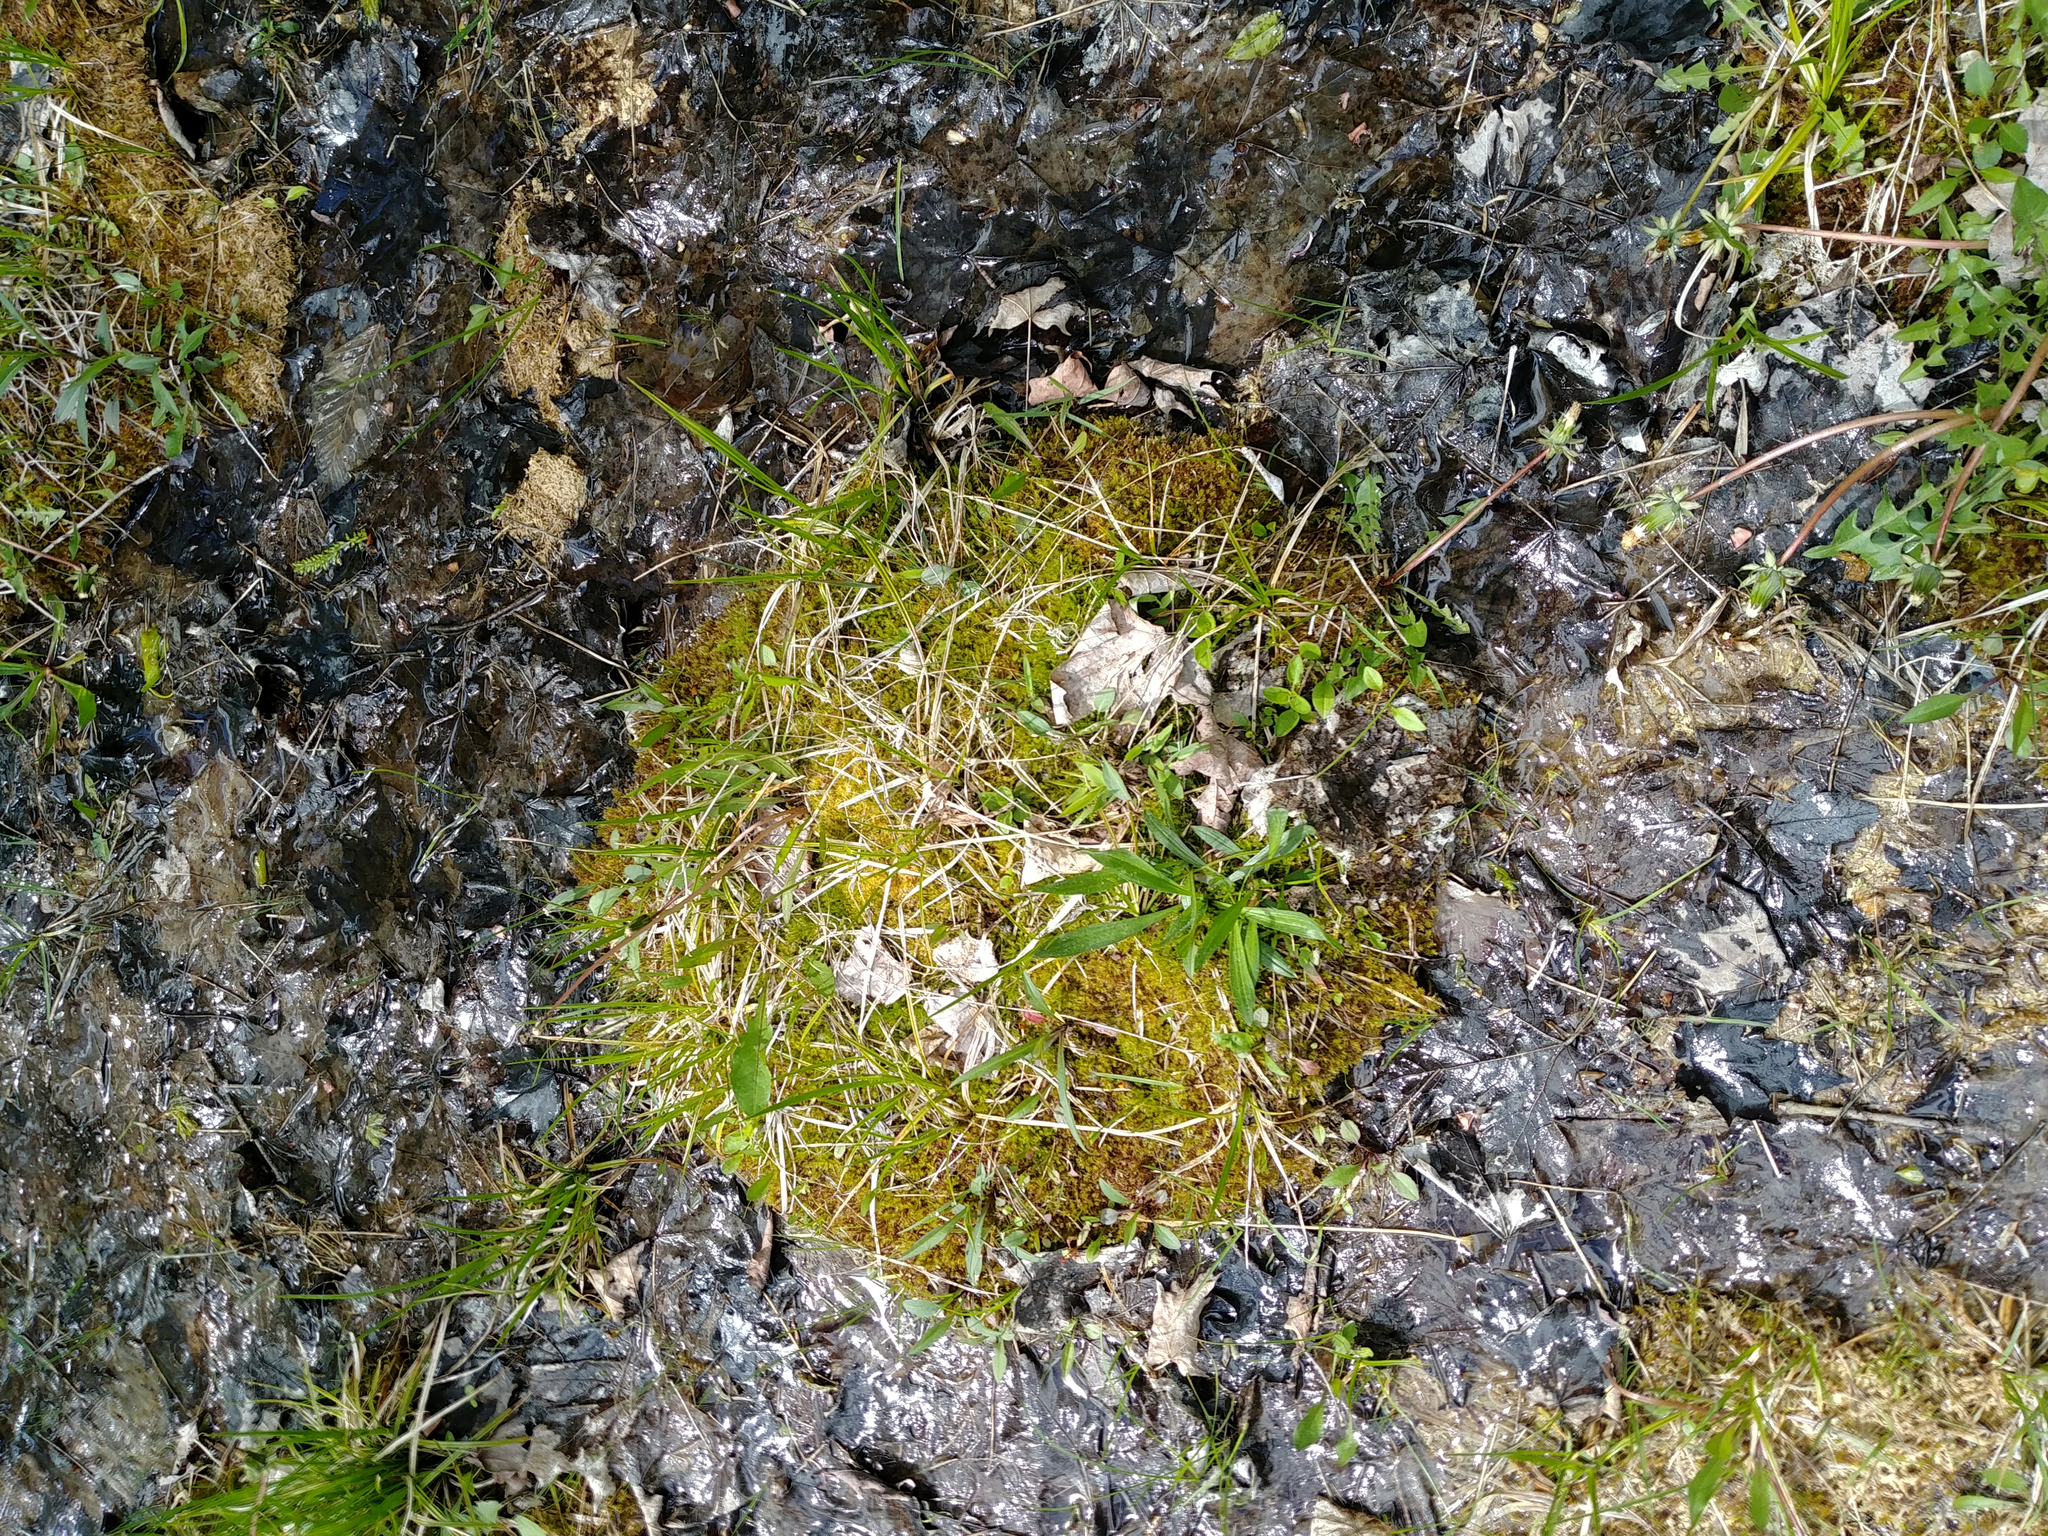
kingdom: Plantae
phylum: Tracheophyta
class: Magnoliopsida
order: Lamiales
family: Plantaginaceae
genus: Plantago
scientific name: Plantago lanceolata
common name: Ribwort plantain
